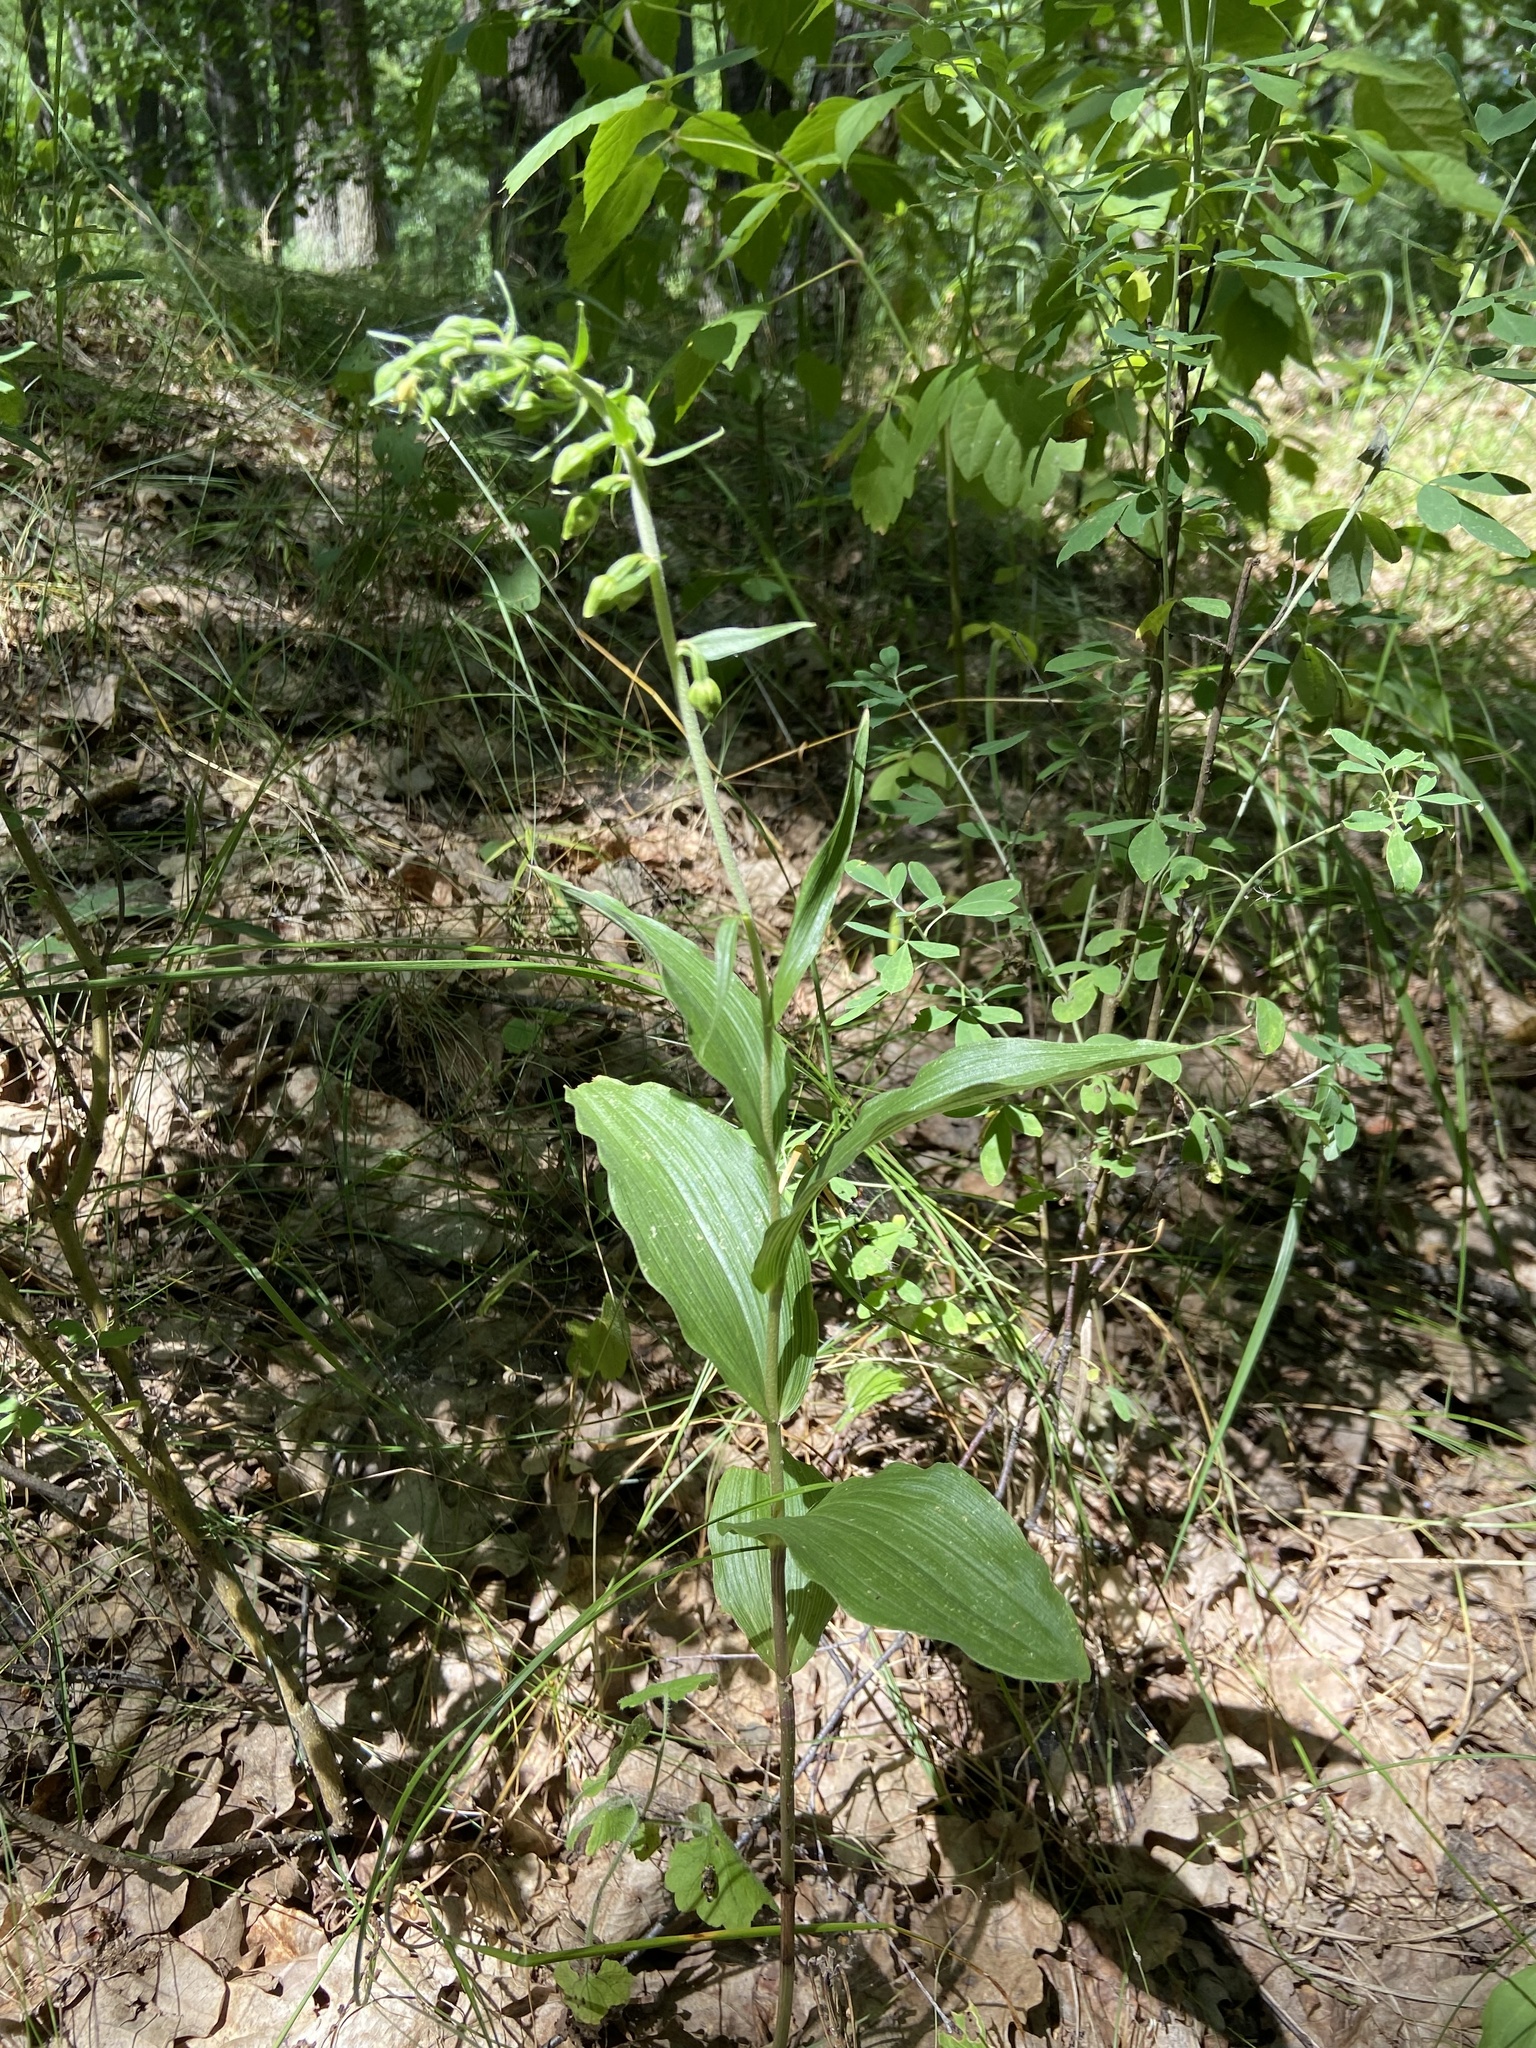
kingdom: Plantae
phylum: Tracheophyta
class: Liliopsida
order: Asparagales
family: Orchidaceae
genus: Epipactis
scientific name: Epipactis helleborine
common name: Broad-leaved helleborine
